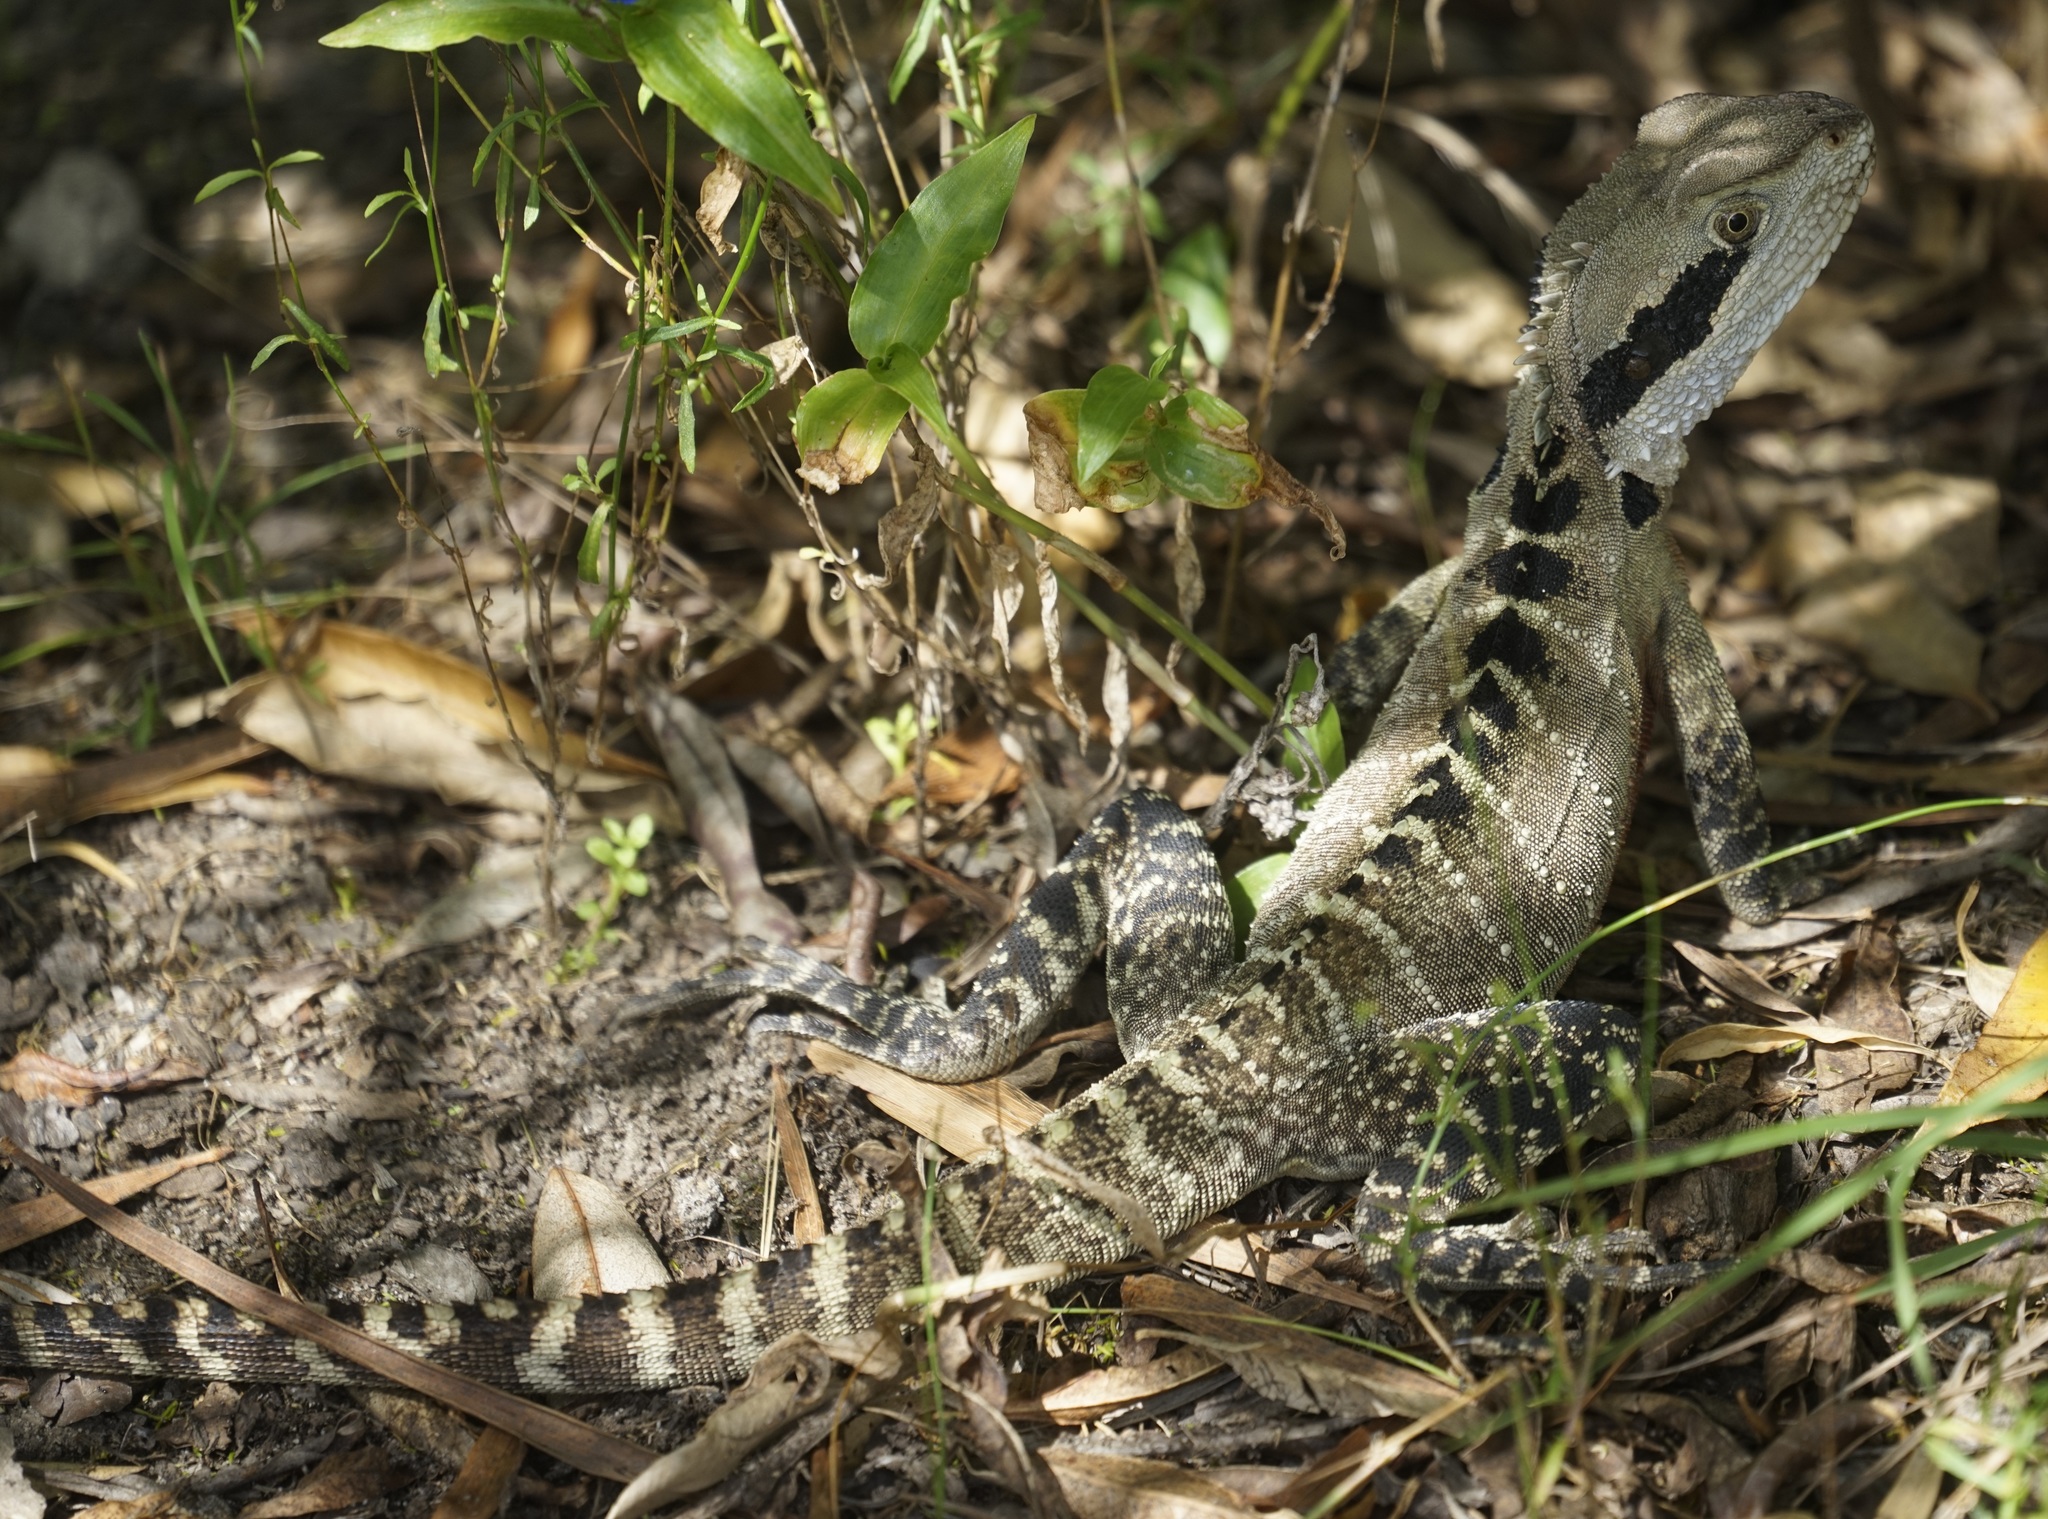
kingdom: Animalia
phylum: Chordata
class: Squamata
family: Agamidae
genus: Intellagama
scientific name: Intellagama lesueurii
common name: Eastern water dragon
